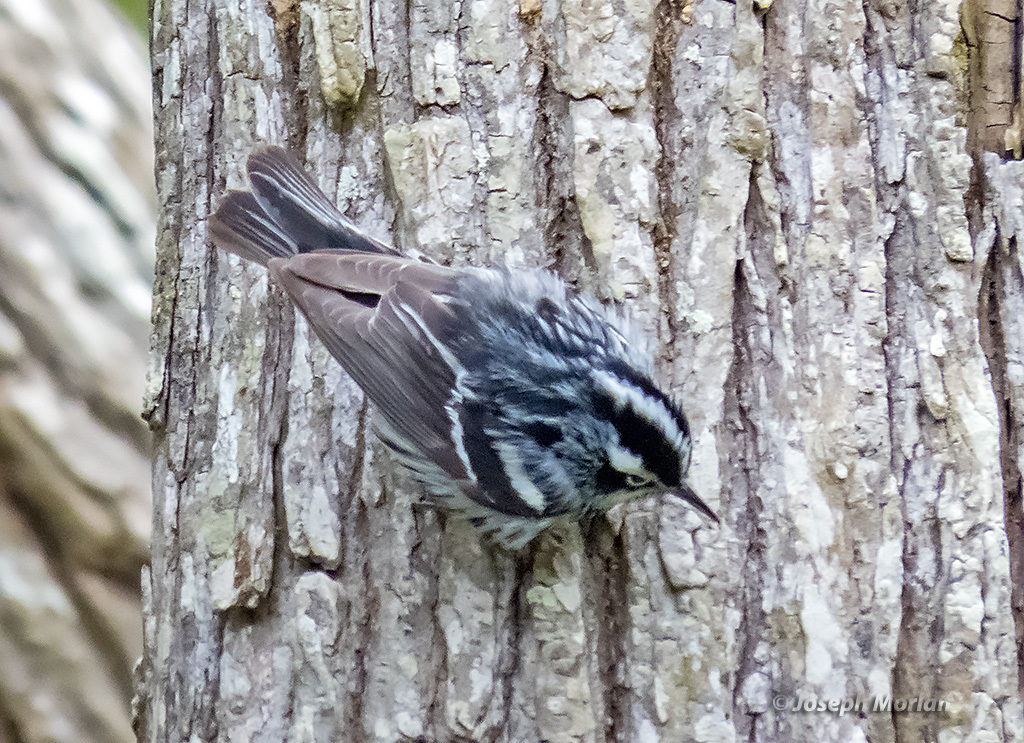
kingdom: Animalia
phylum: Chordata
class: Aves
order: Passeriformes
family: Parulidae
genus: Mniotilta
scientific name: Mniotilta varia
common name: Black-and-white warbler
